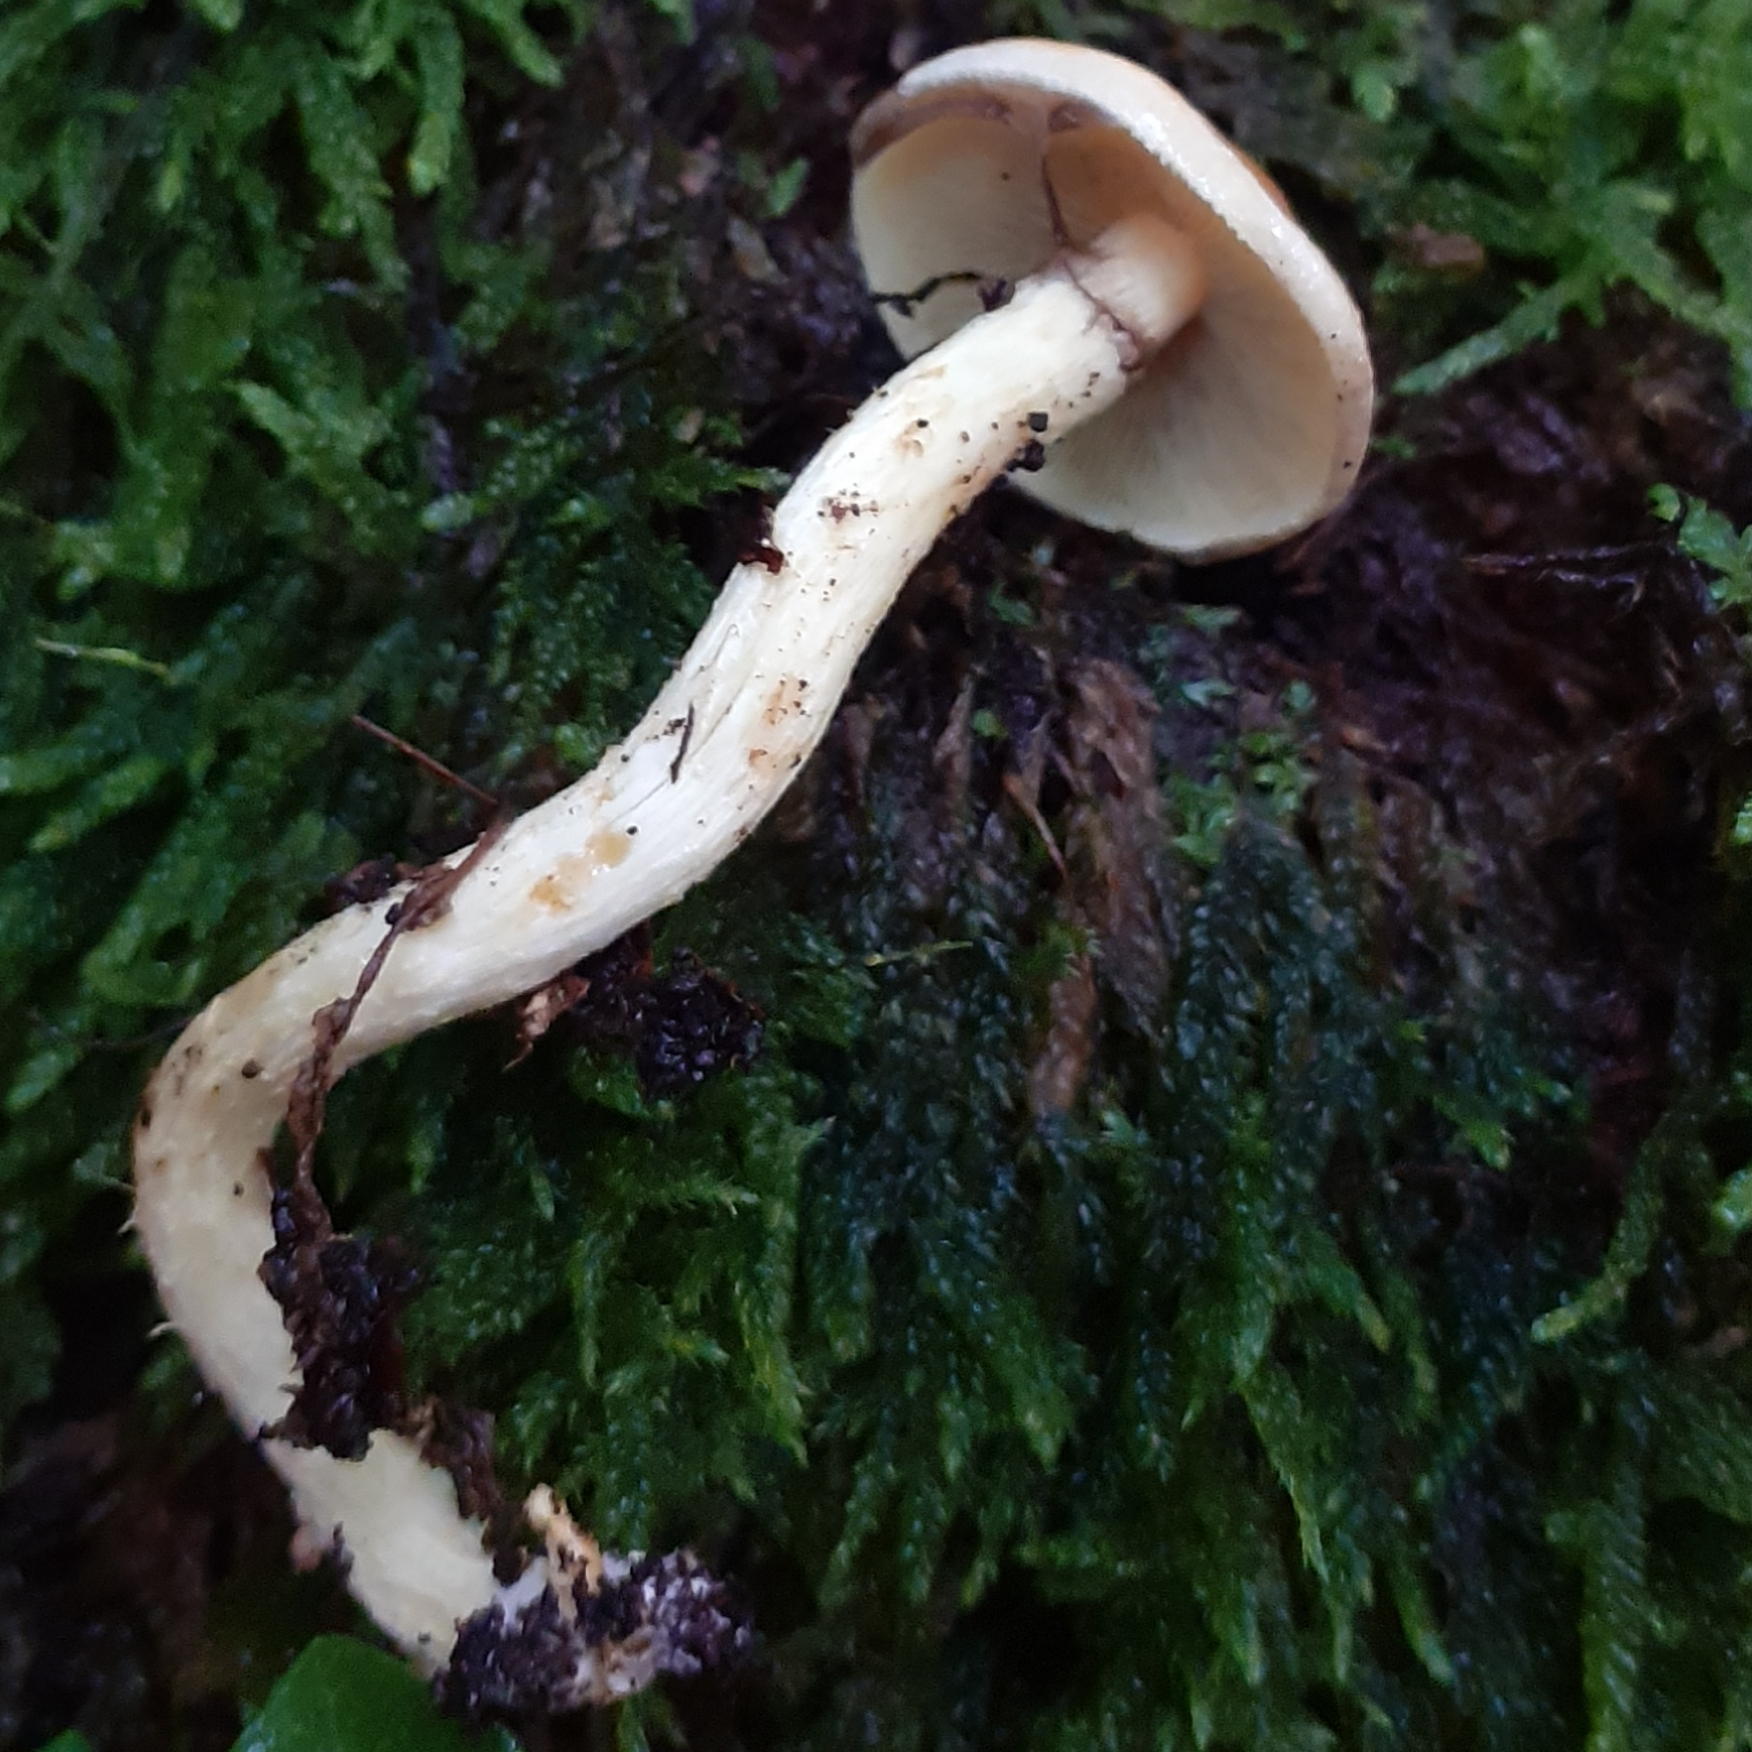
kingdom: Fungi
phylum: Basidiomycota
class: Agaricomycetes
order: Agaricales
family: Strophariaceae
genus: Hypholoma
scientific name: Hypholoma fasciculare
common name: Sulphur tuft
